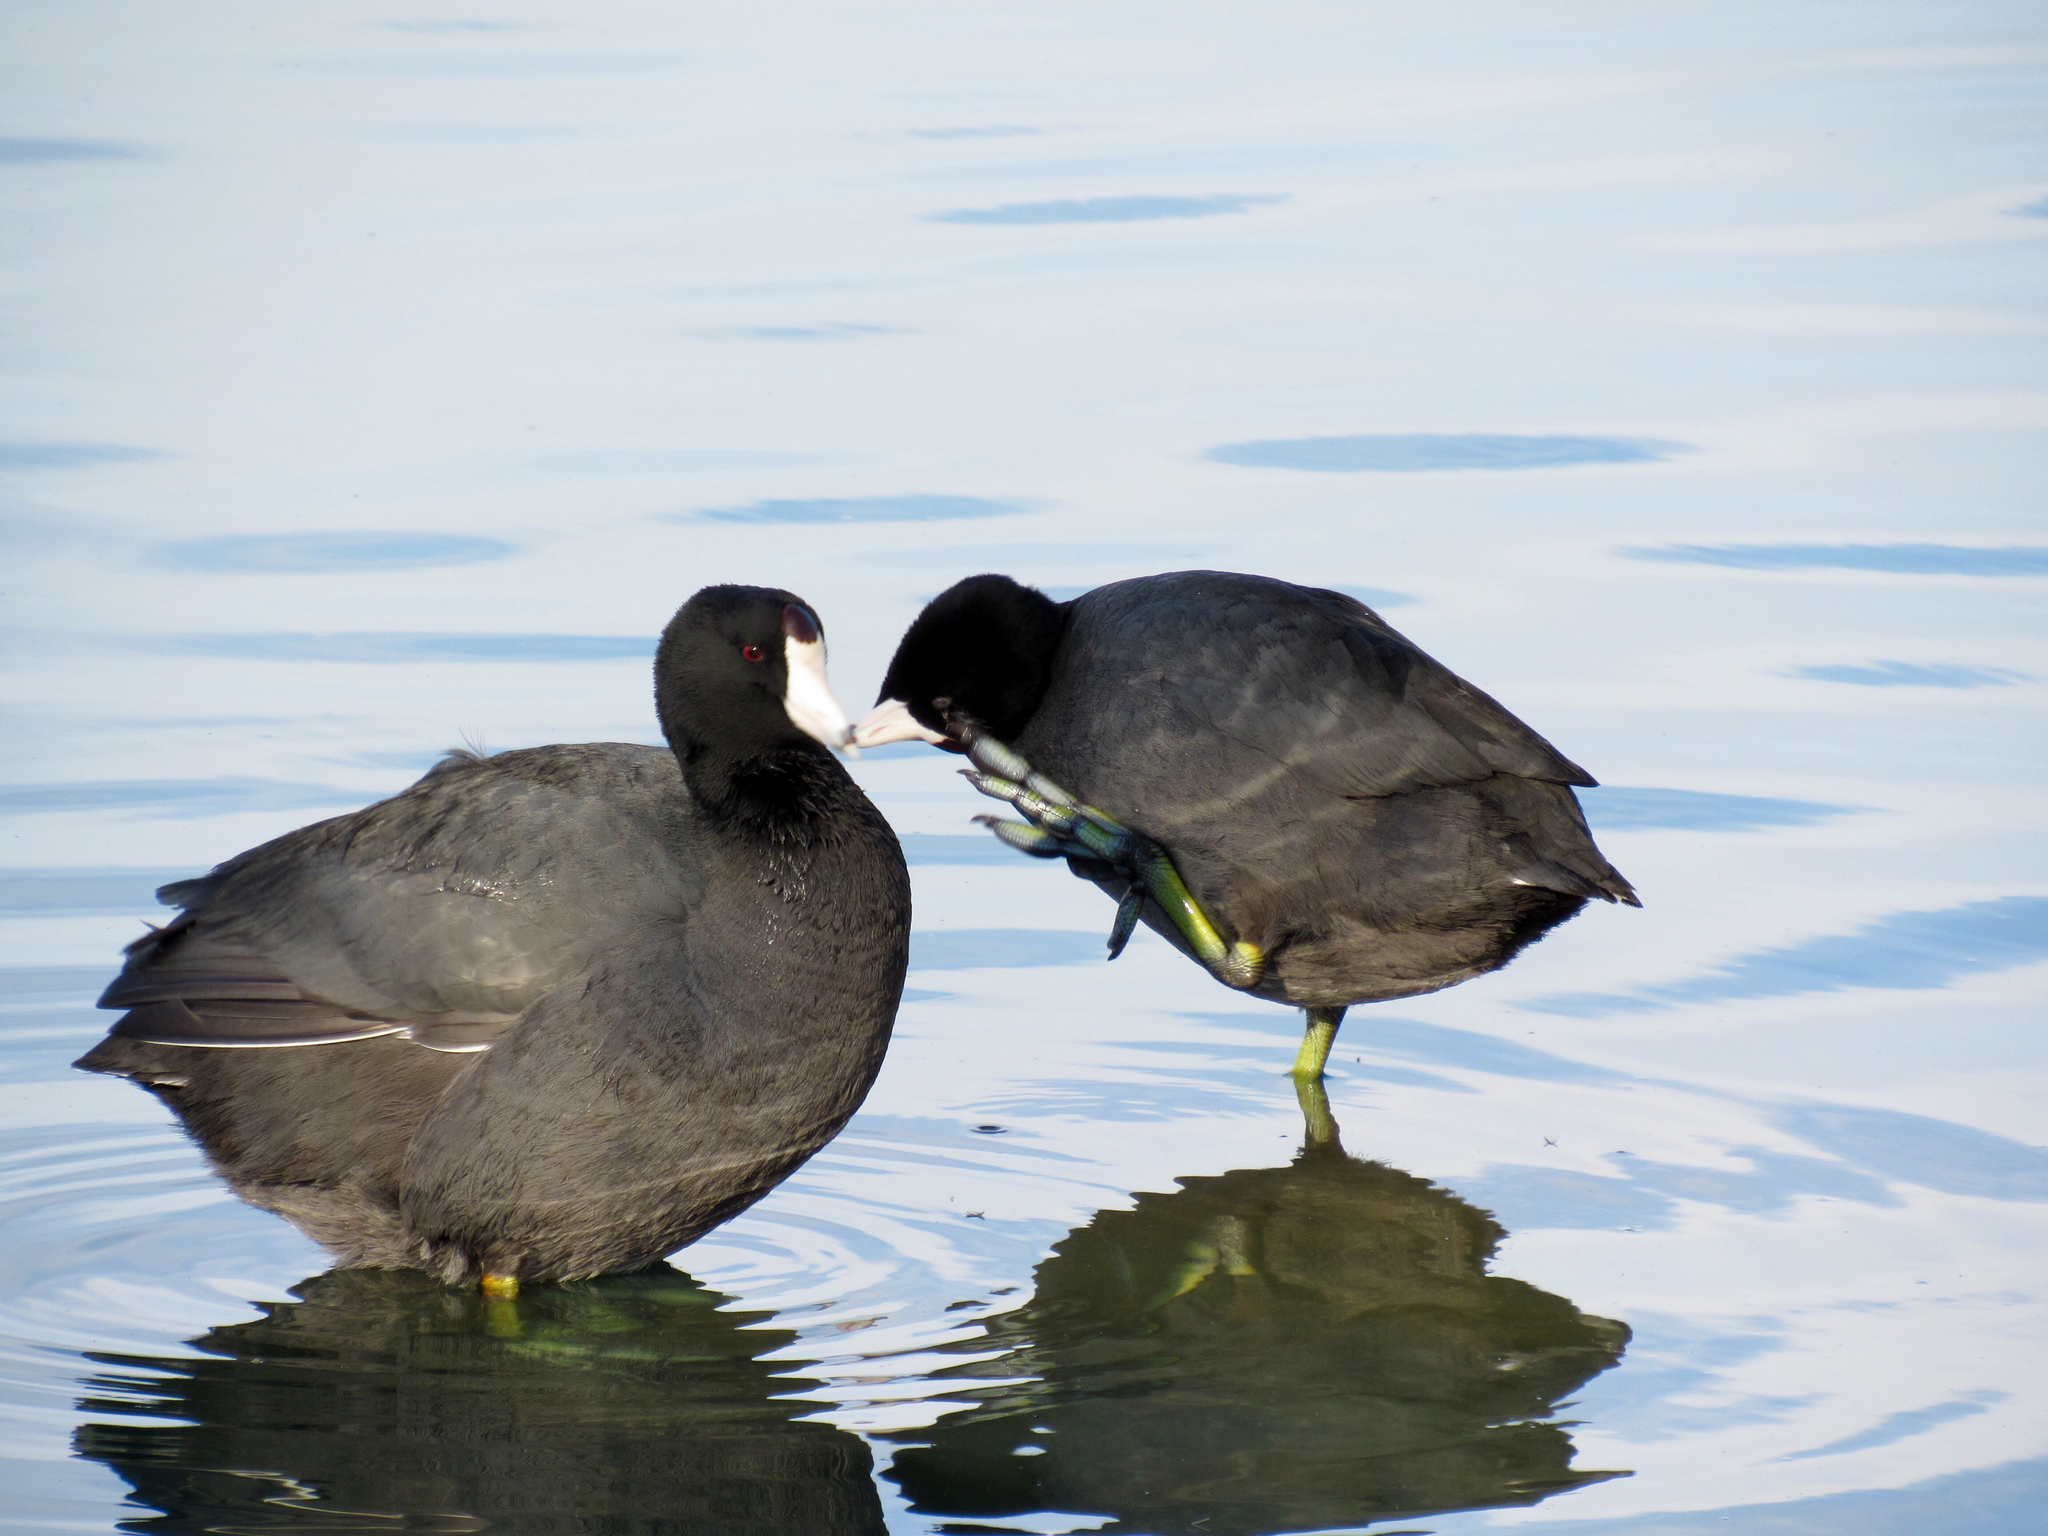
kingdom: Animalia
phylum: Chordata
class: Aves
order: Gruiformes
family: Rallidae
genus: Fulica
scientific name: Fulica americana
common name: American coot
